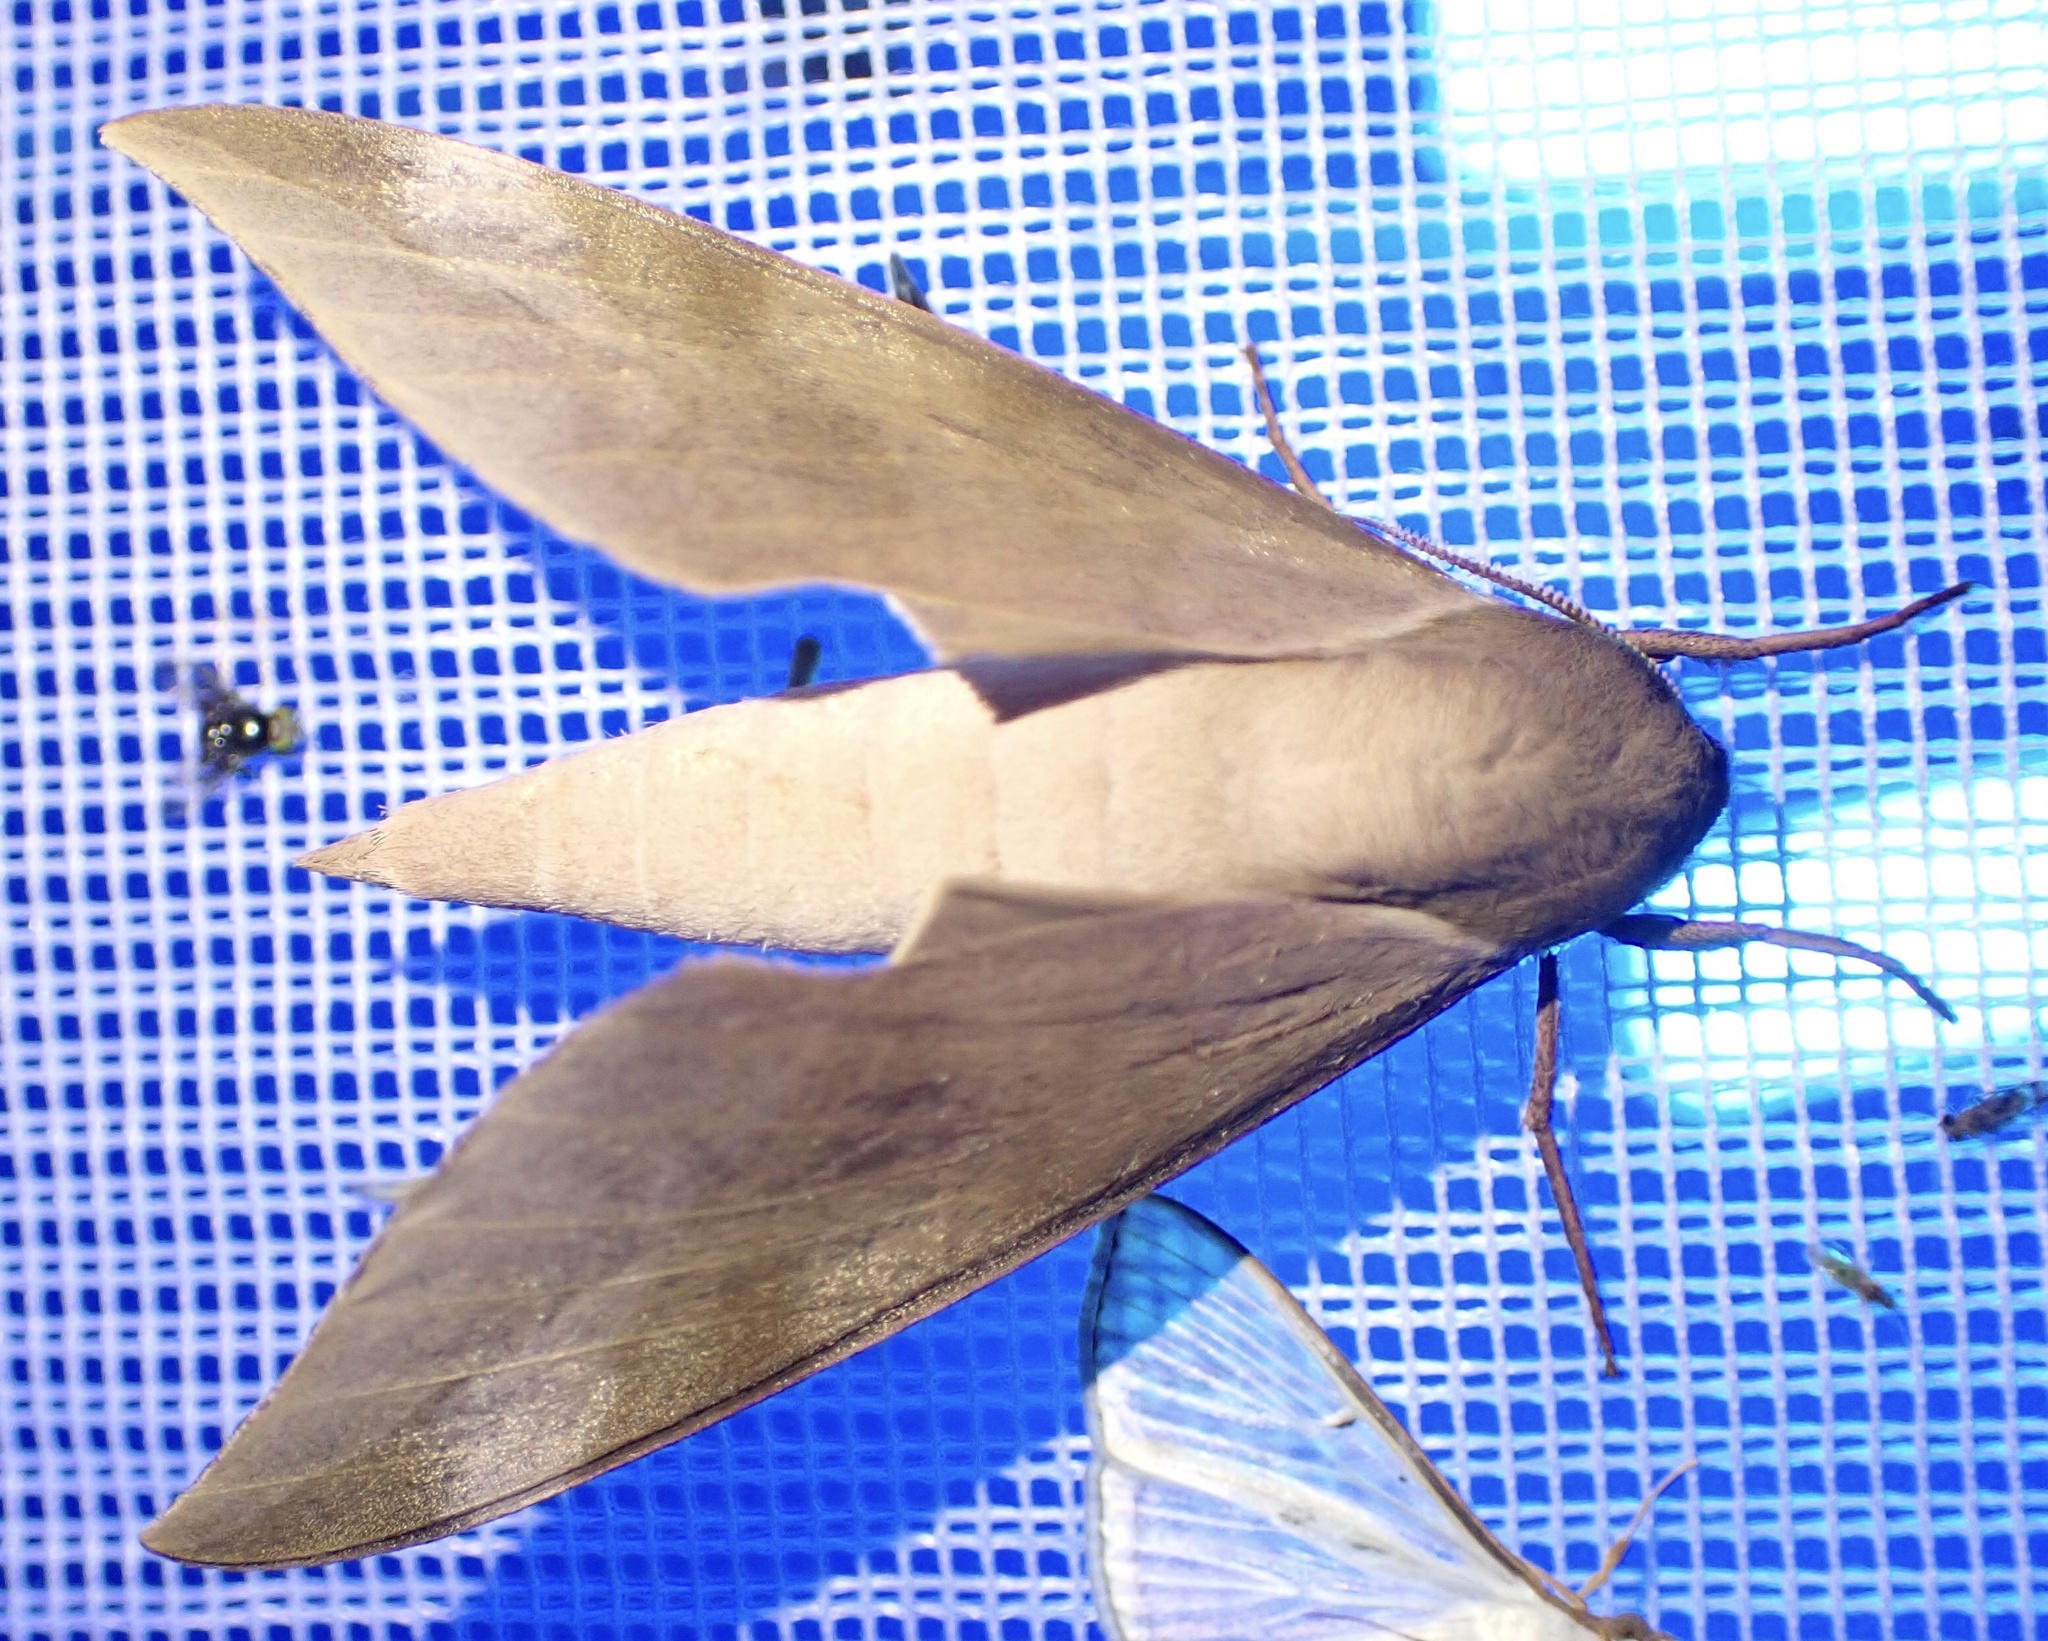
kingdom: Animalia
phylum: Arthropoda
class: Insecta
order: Lepidoptera
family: Sphingidae
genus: Phylloxiphia
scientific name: Phylloxiphia bicolor
